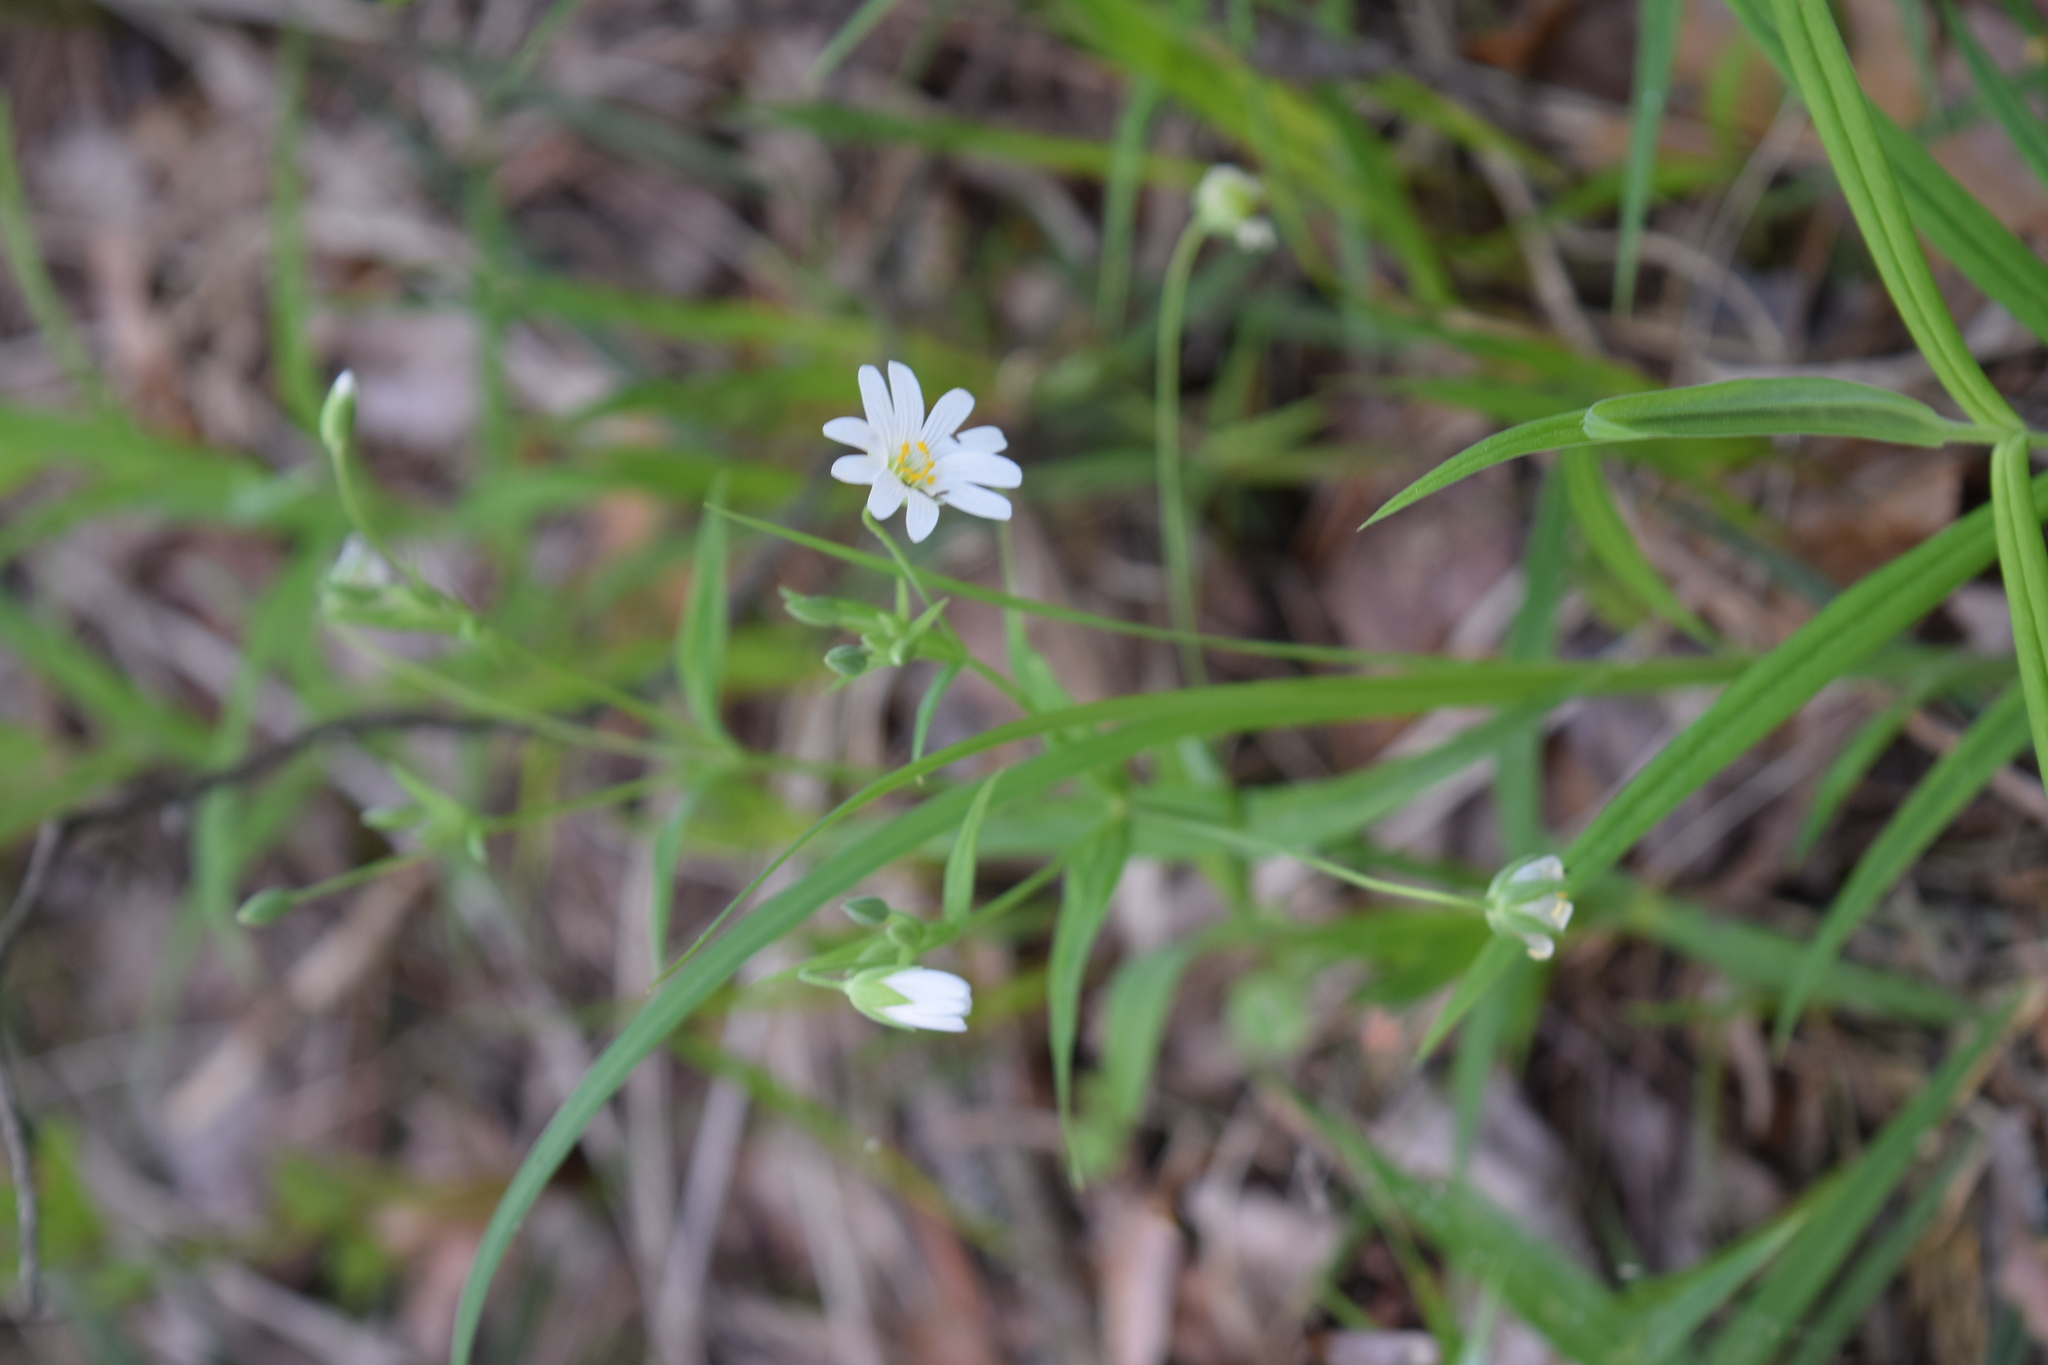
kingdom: Plantae
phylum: Tracheophyta
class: Magnoliopsida
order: Caryophyllales
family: Caryophyllaceae
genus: Rabelera
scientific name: Rabelera holostea
